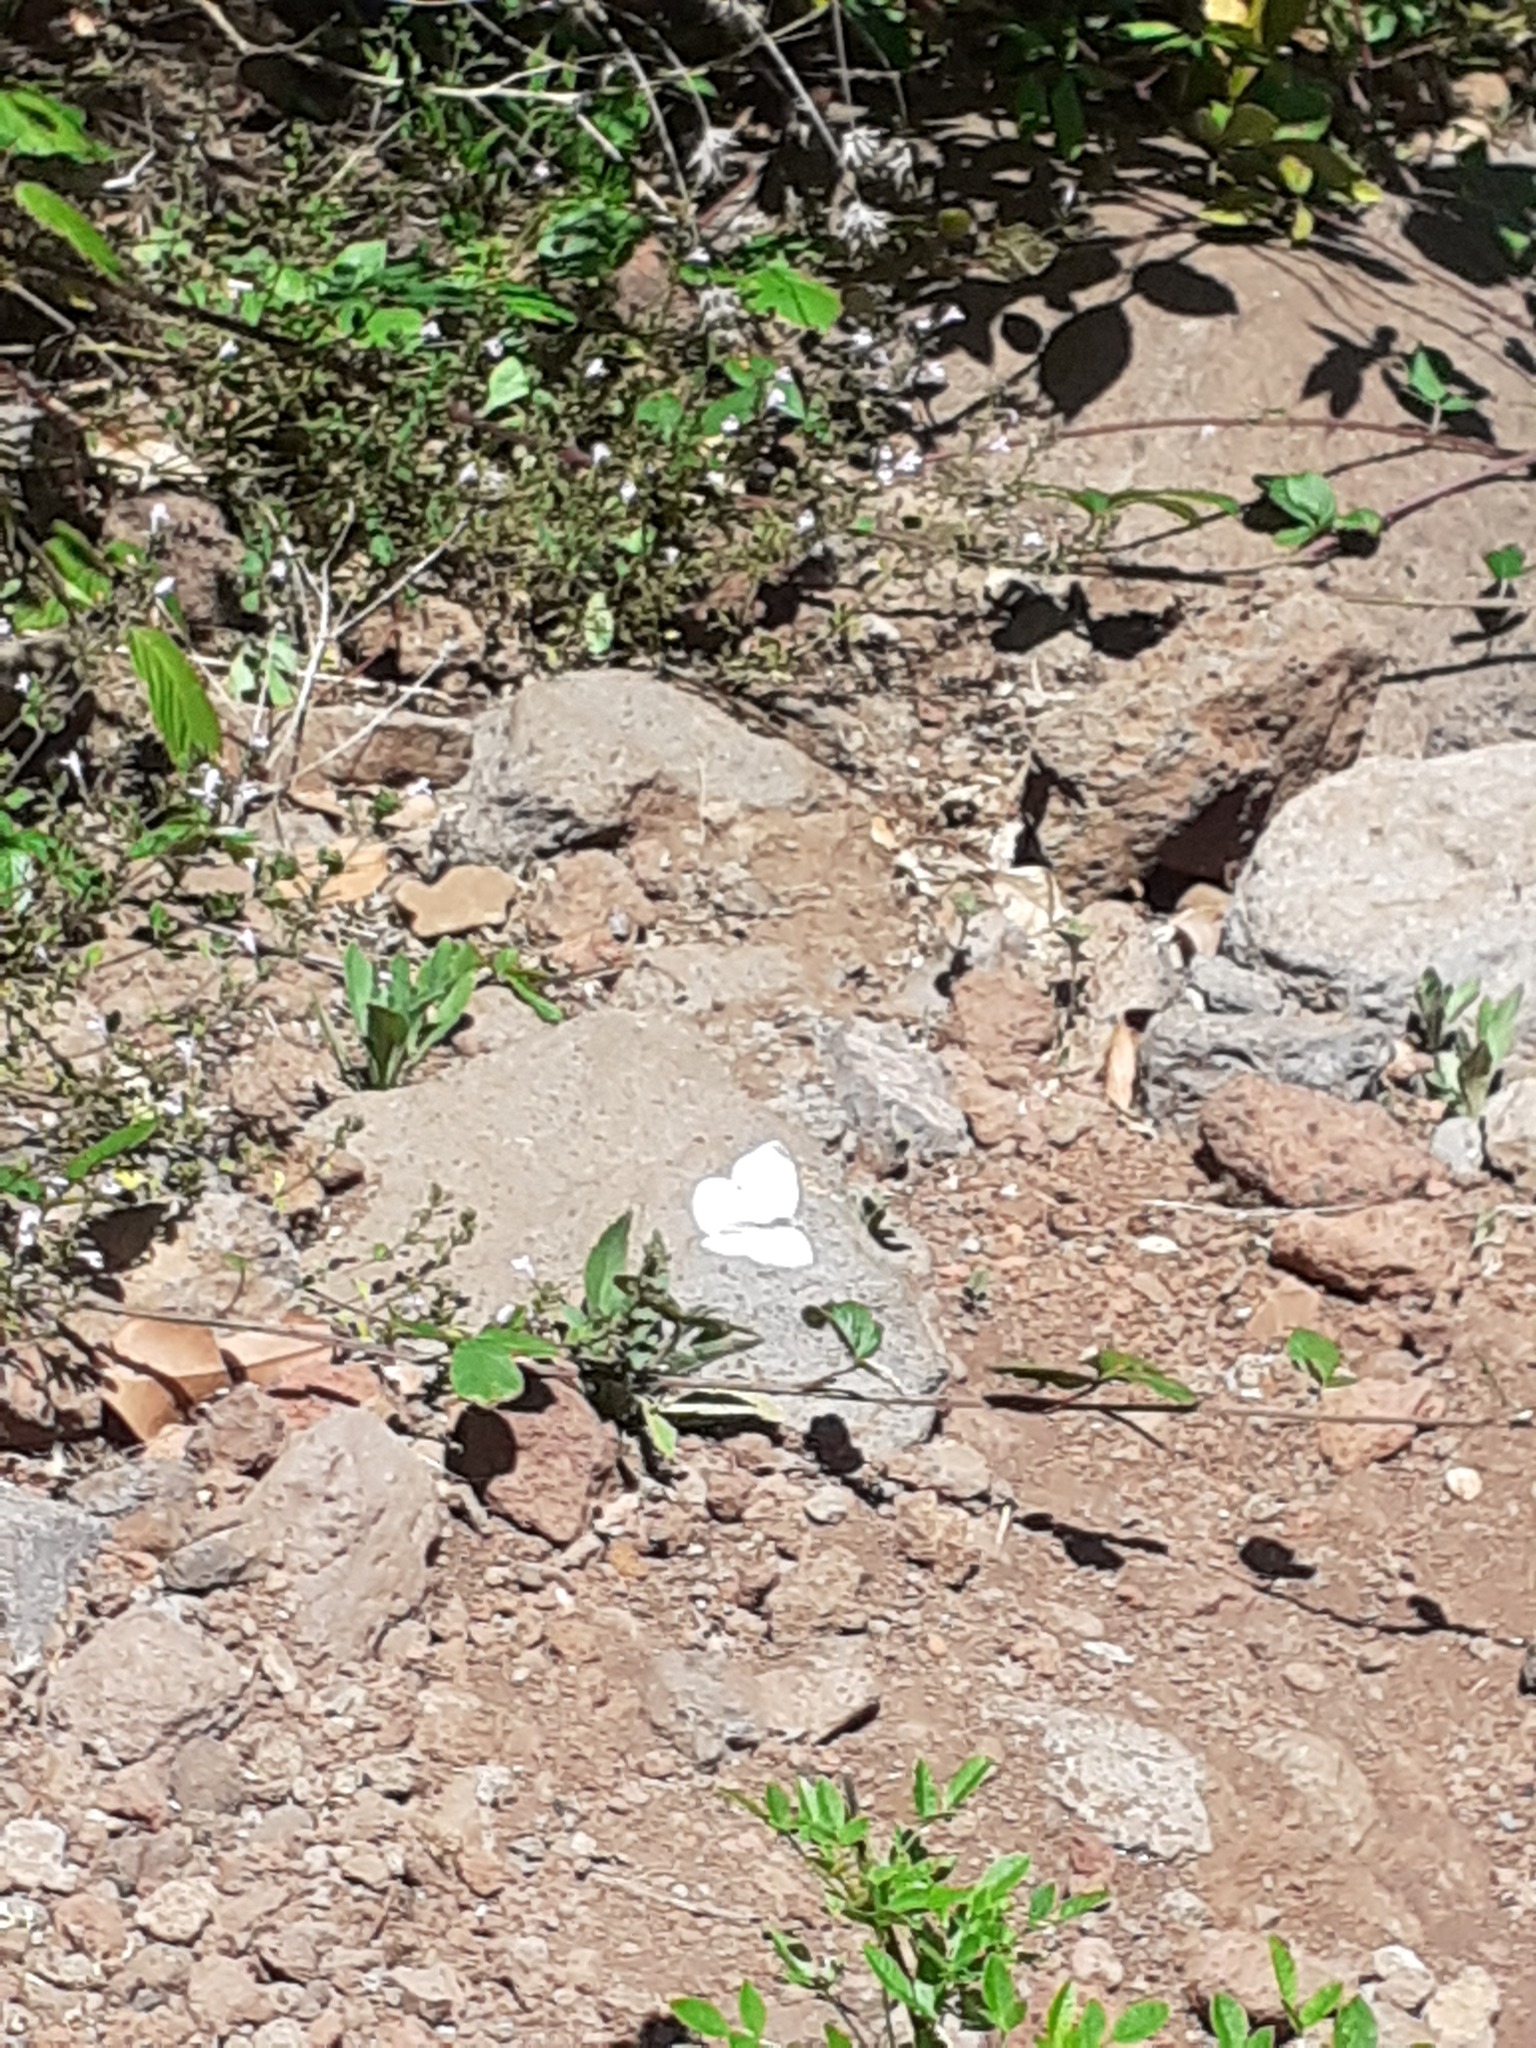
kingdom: Animalia
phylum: Arthropoda
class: Insecta
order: Lepidoptera
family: Pieridae
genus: Pieris
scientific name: Pieris rapae
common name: Small white
